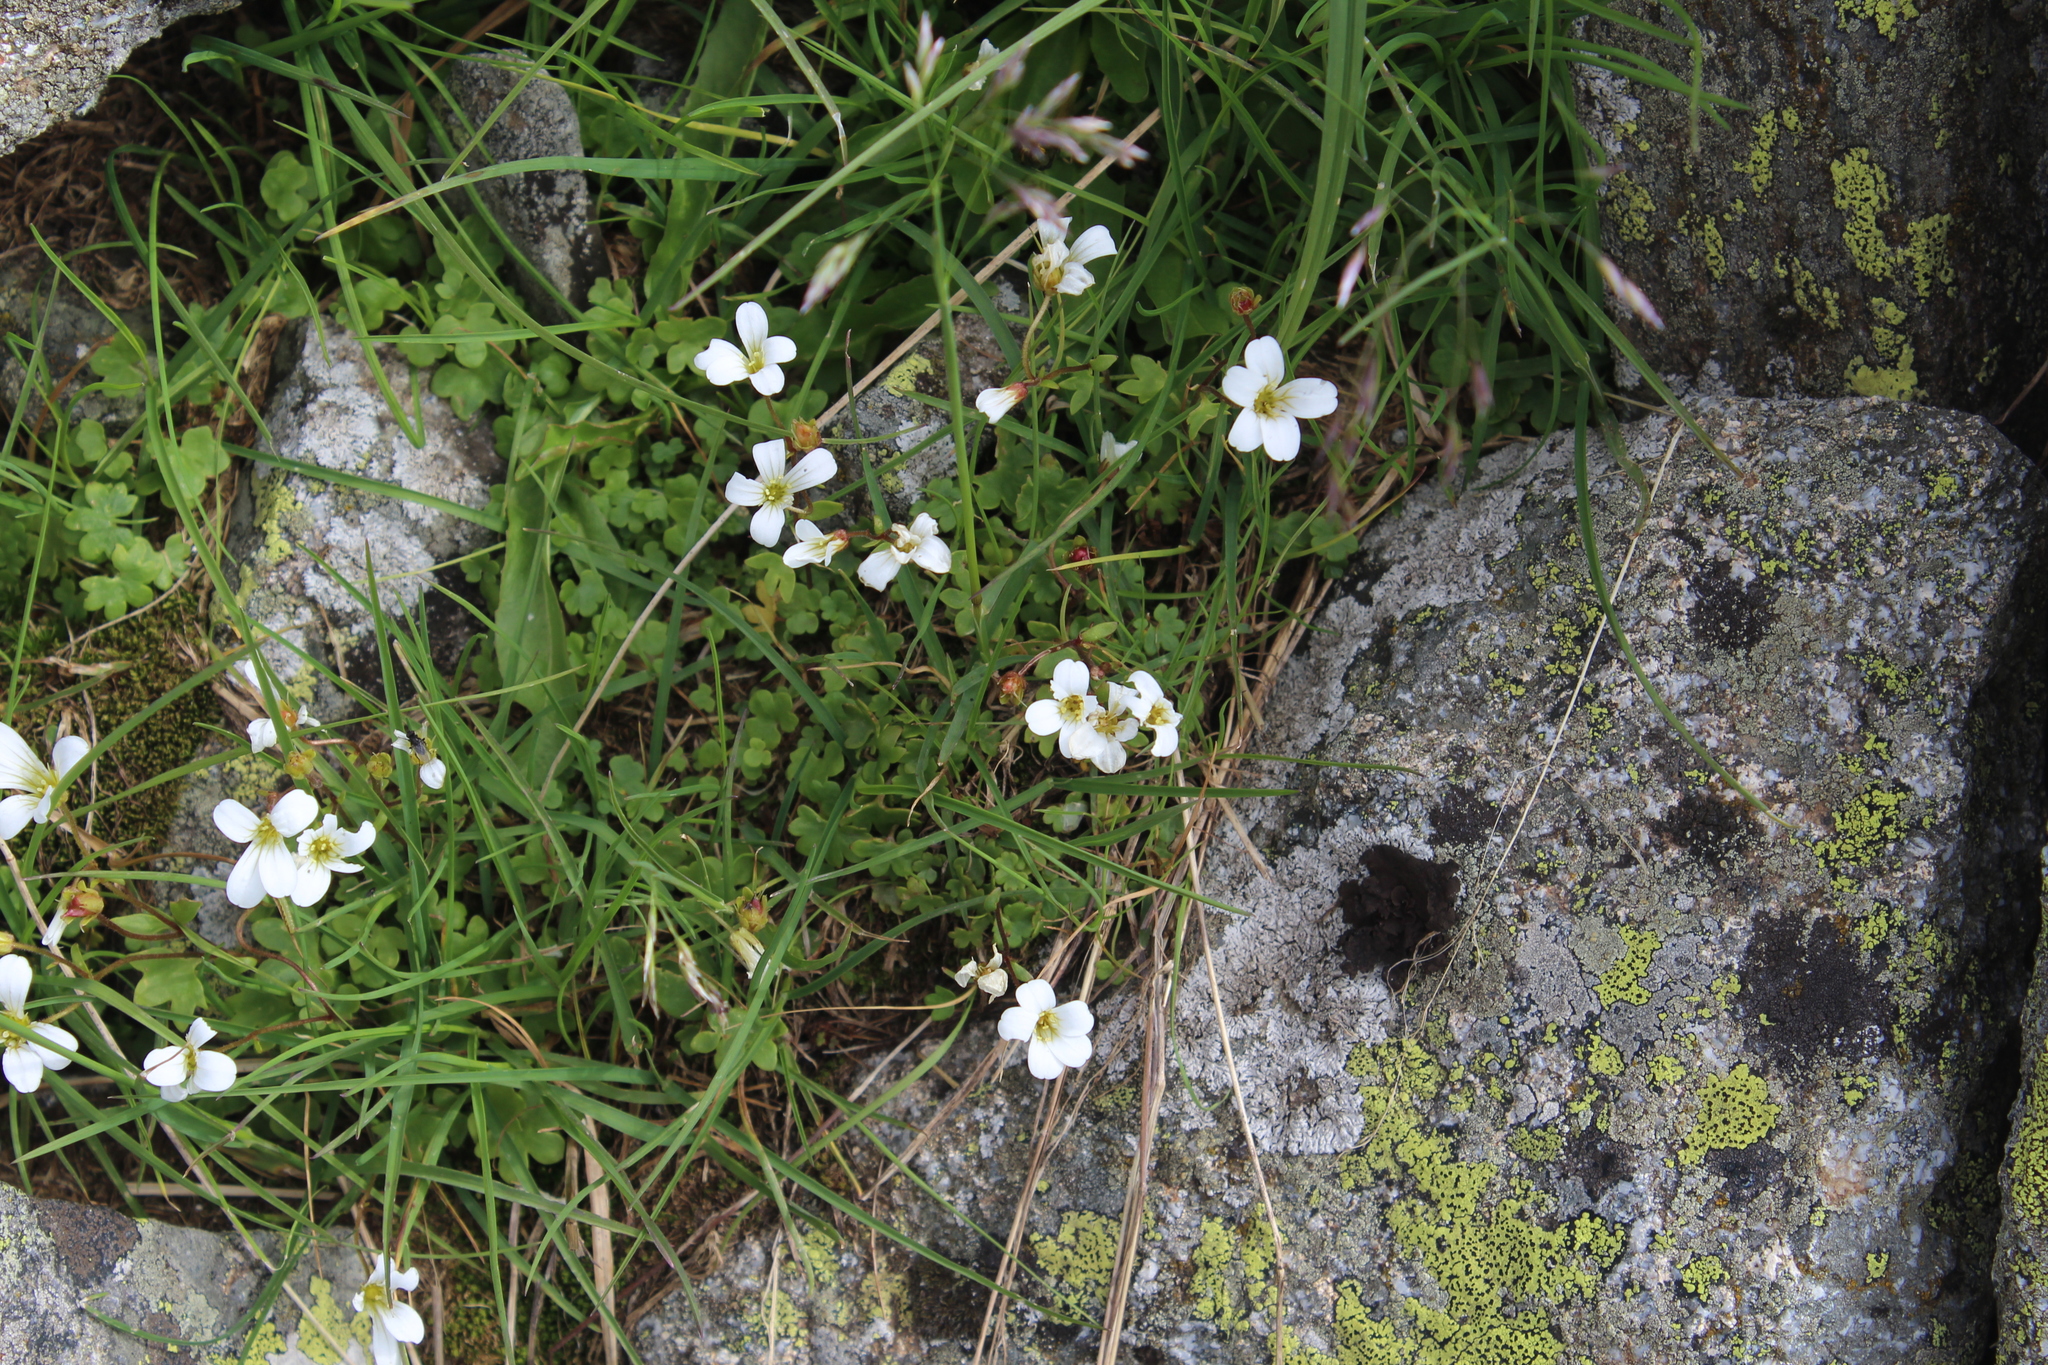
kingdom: Plantae
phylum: Tracheophyta
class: Magnoliopsida
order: Saxifragales
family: Saxifragaceae
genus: Saxifraga
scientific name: Saxifraga sibirica
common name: Siberian saxifrage
